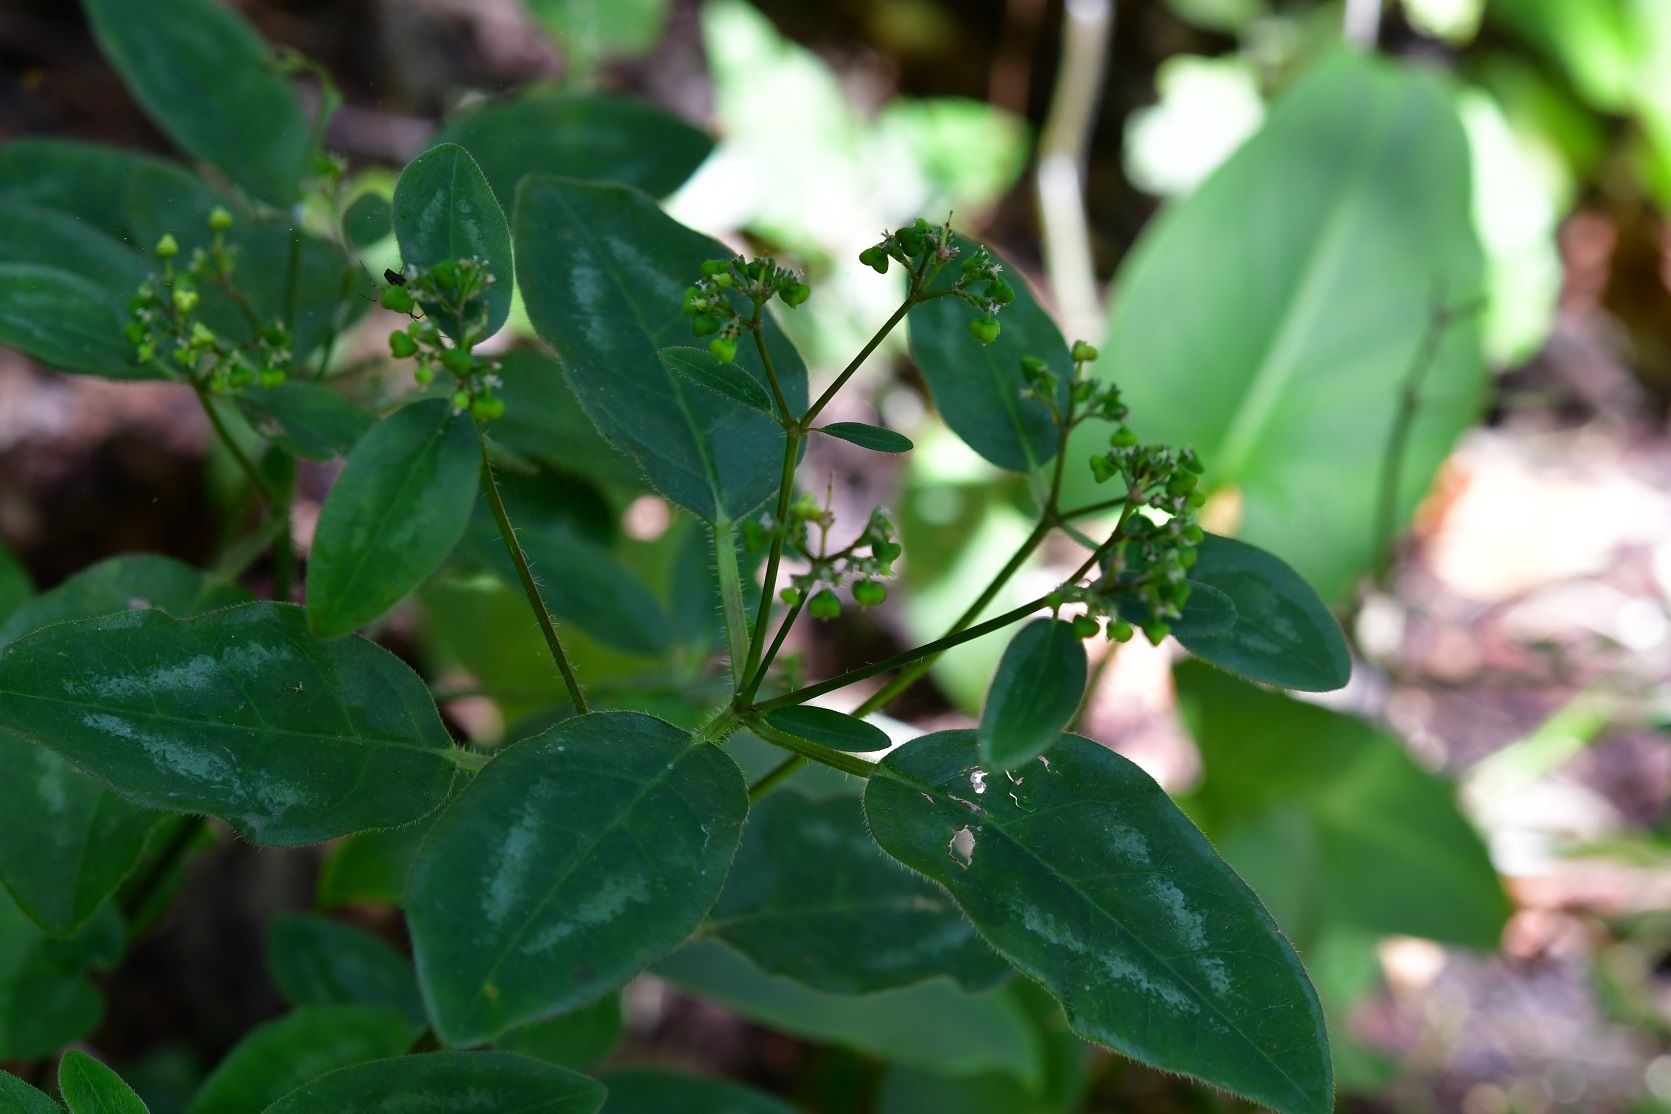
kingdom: Plantae
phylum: Tracheophyta
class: Magnoliopsida
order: Malpighiales
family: Euphorbiaceae
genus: Euphorbia
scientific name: Euphorbia graminea
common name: Grassleaf spurge
